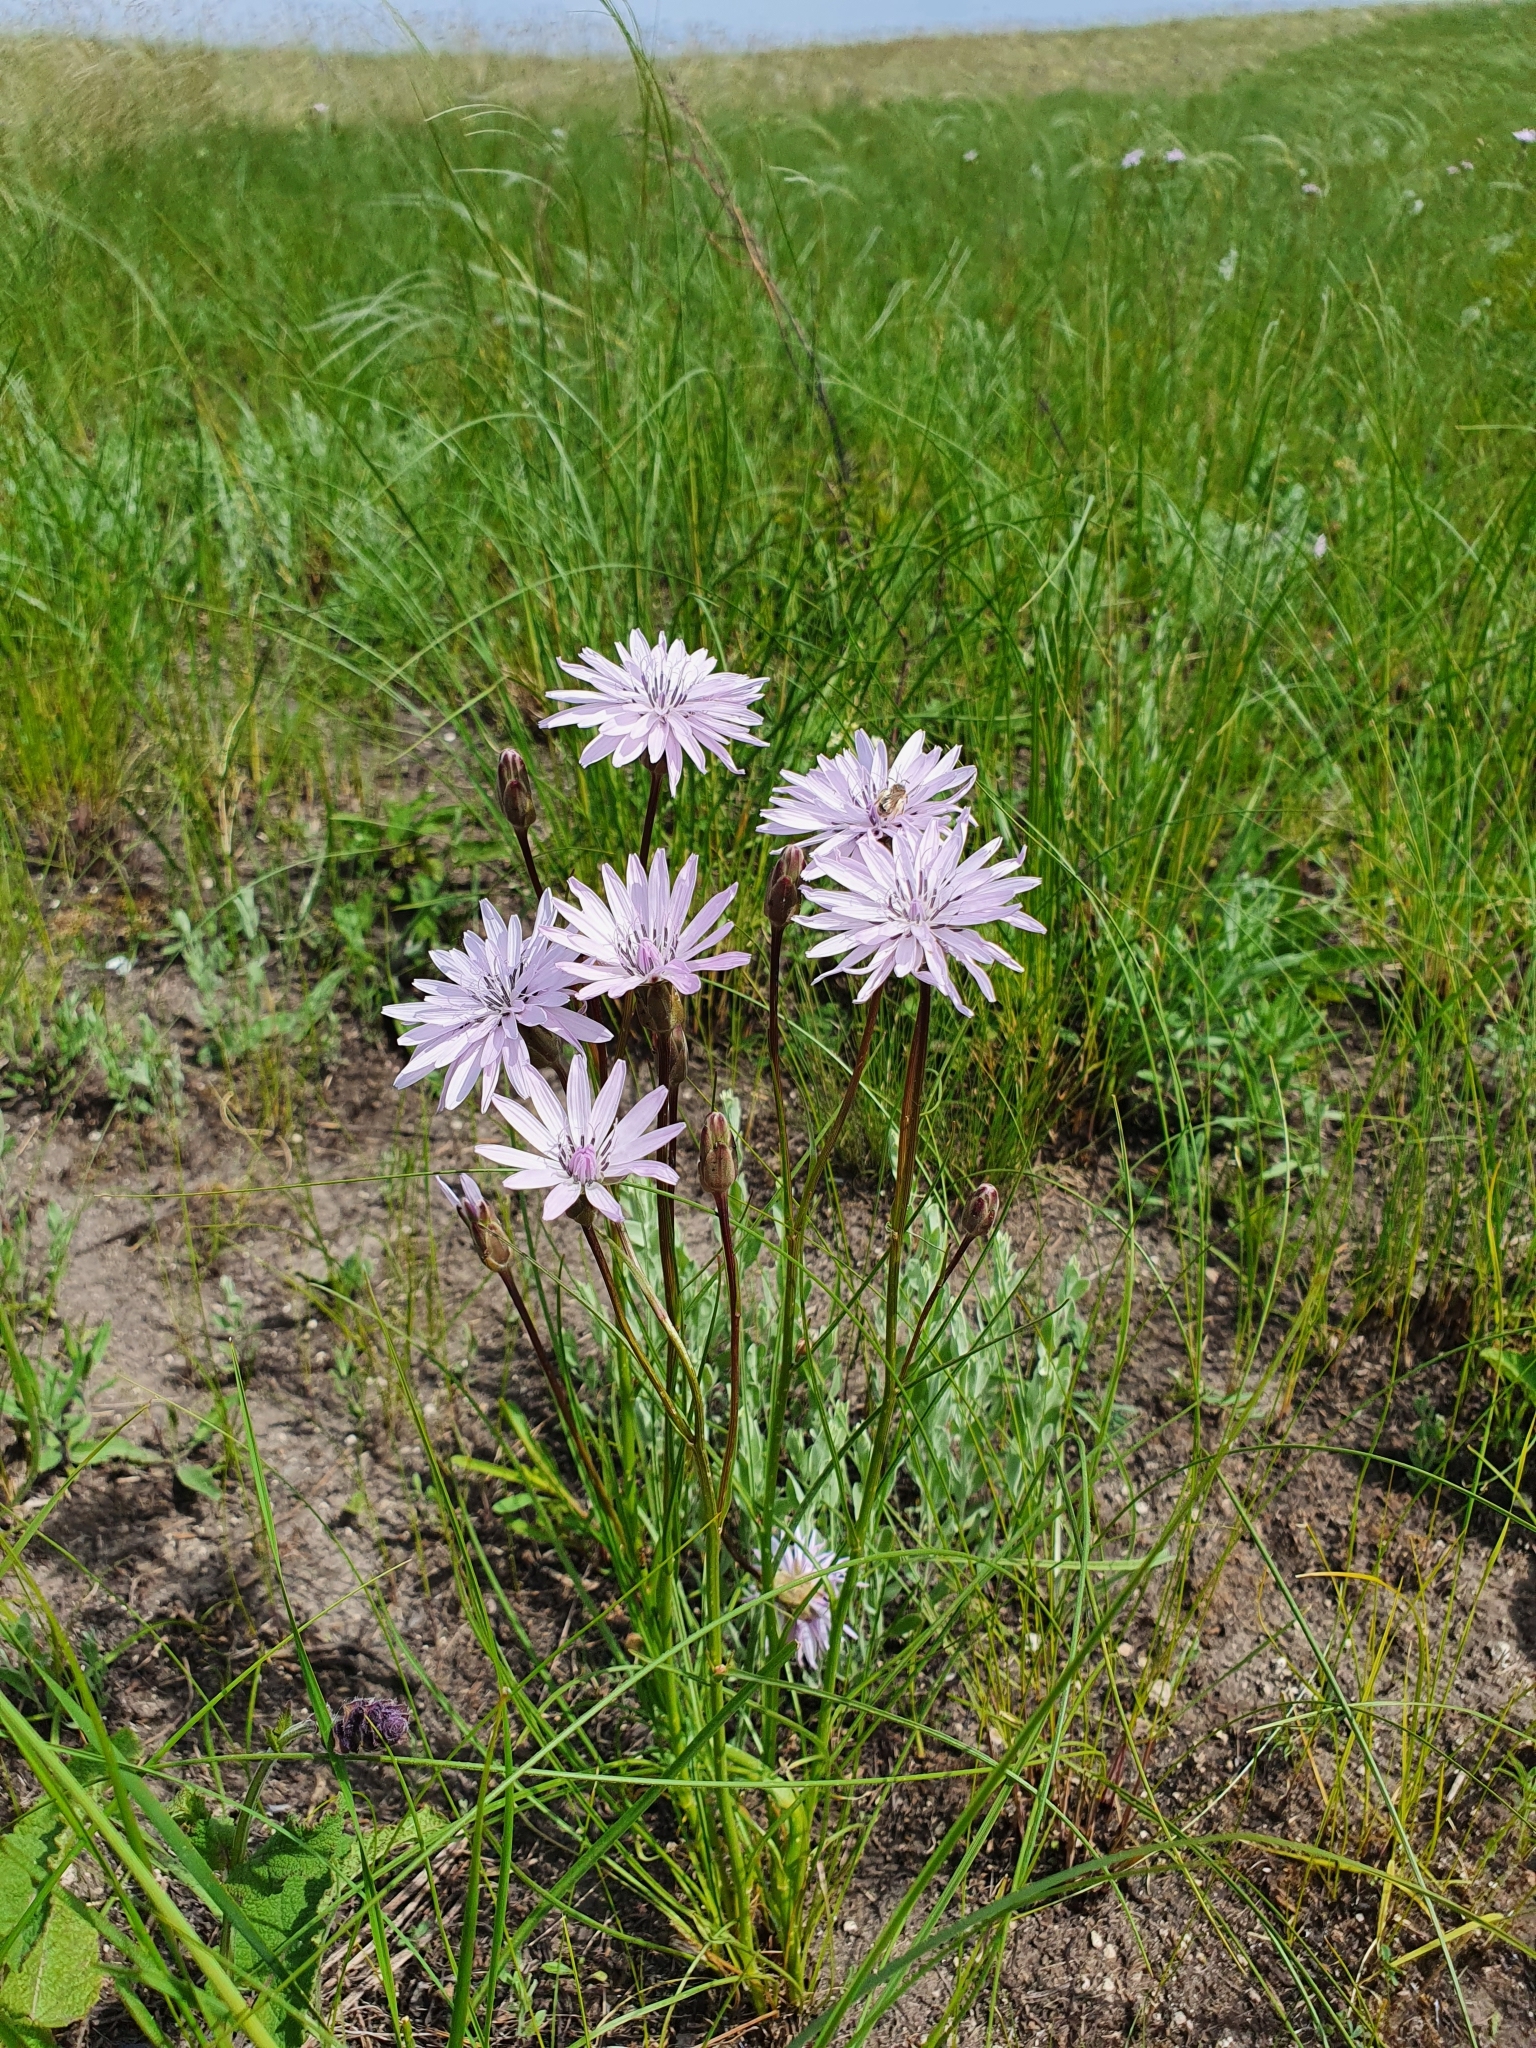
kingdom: Plantae
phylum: Tracheophyta
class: Magnoliopsida
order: Asterales
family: Asteraceae
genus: Scorzonera
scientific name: Scorzonera purpurea
